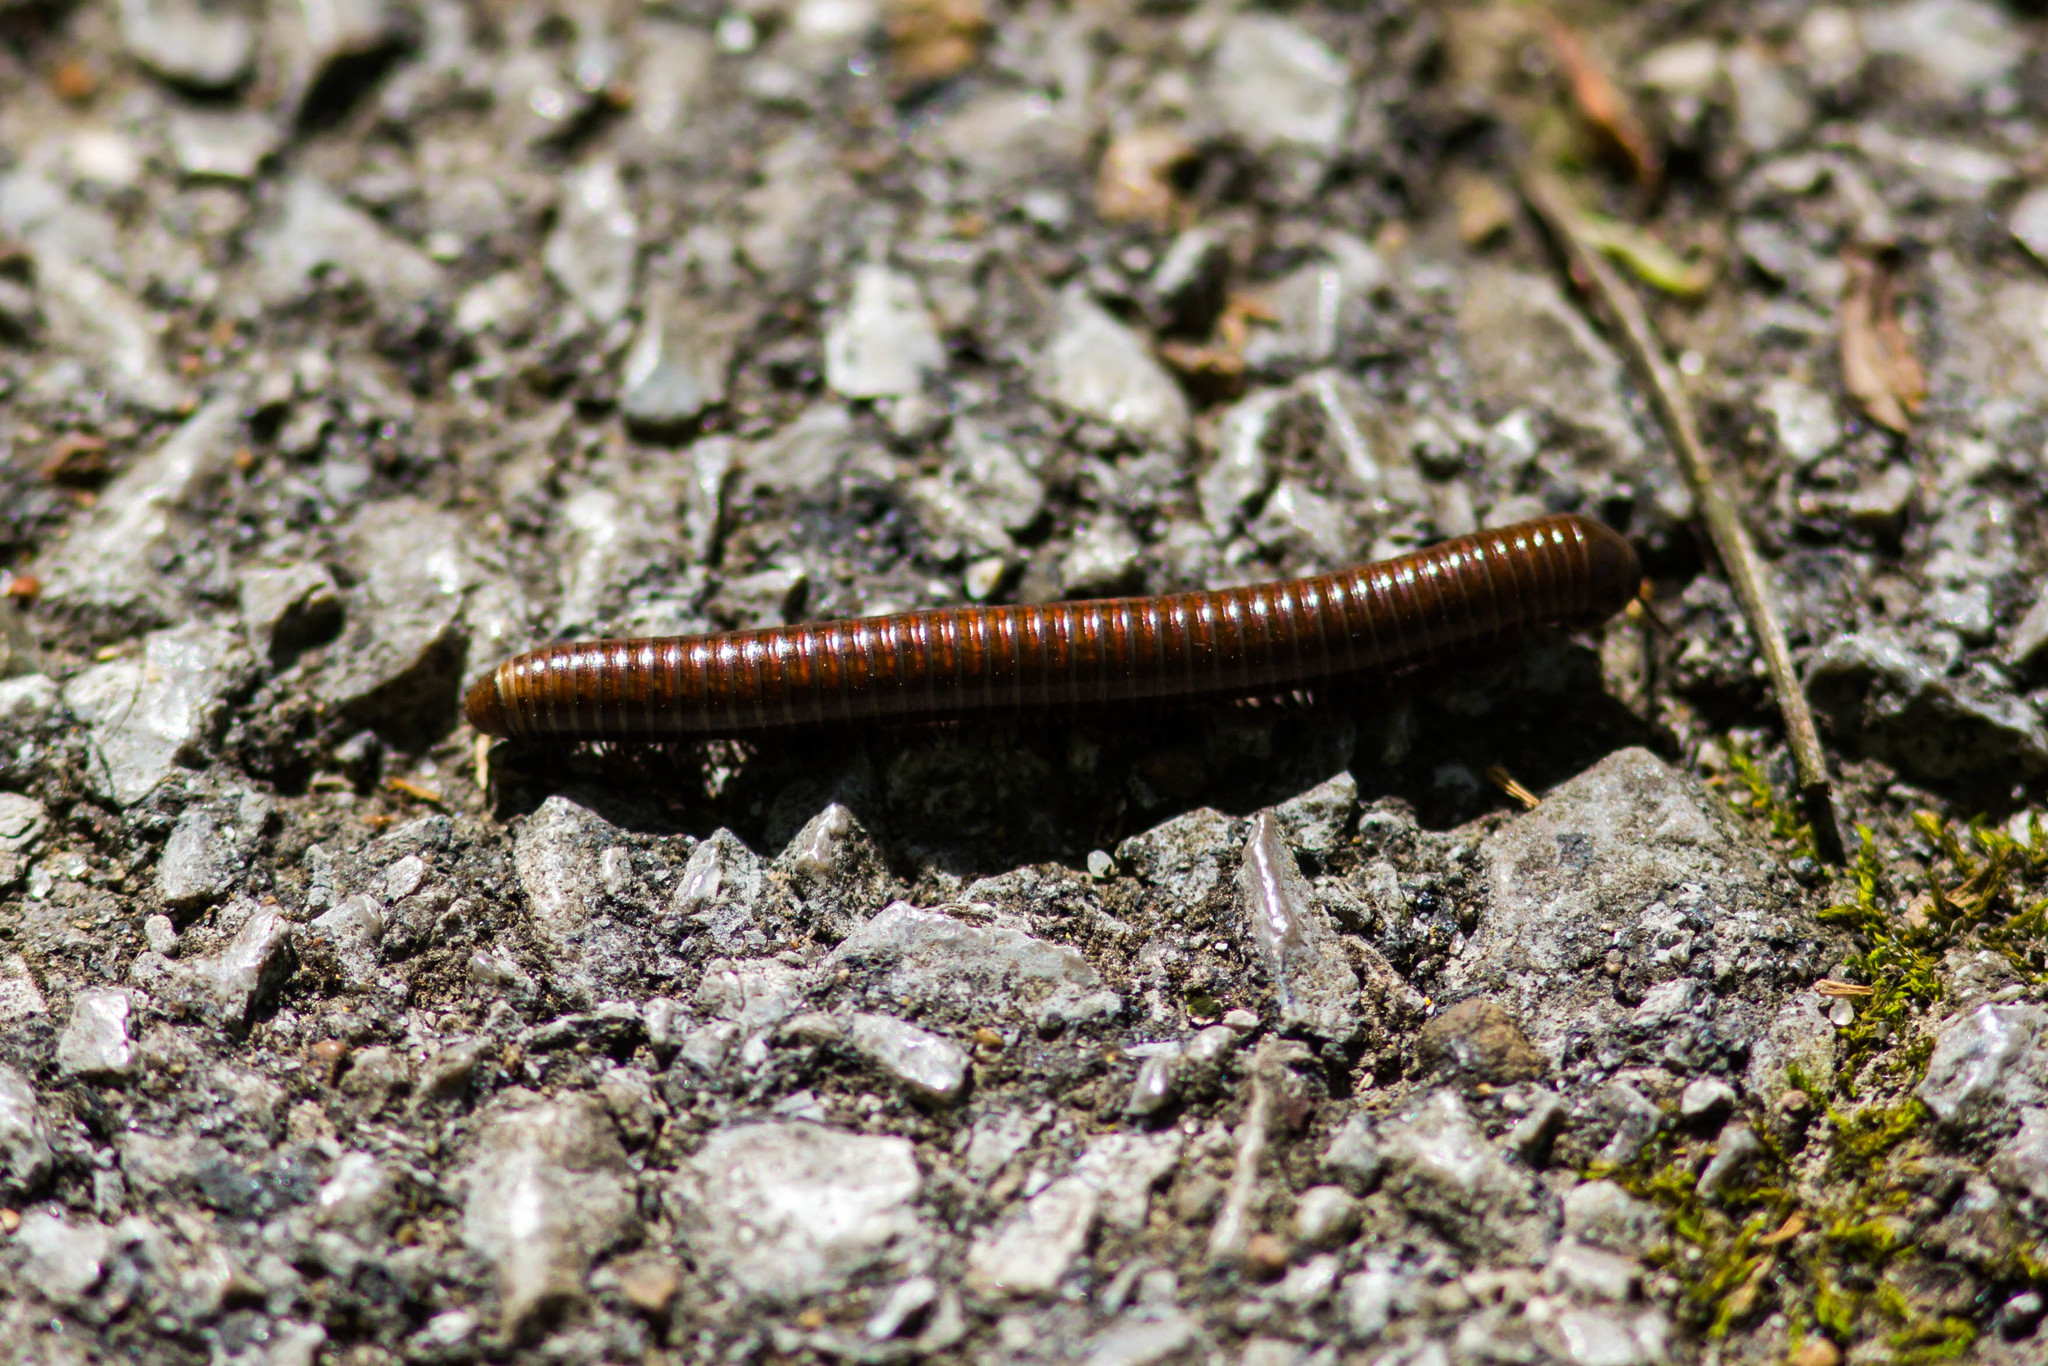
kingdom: Animalia
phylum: Arthropoda
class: Diplopoda
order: Spirostreptida
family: Choctellidae
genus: Choctella
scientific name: Choctella cumminsi
